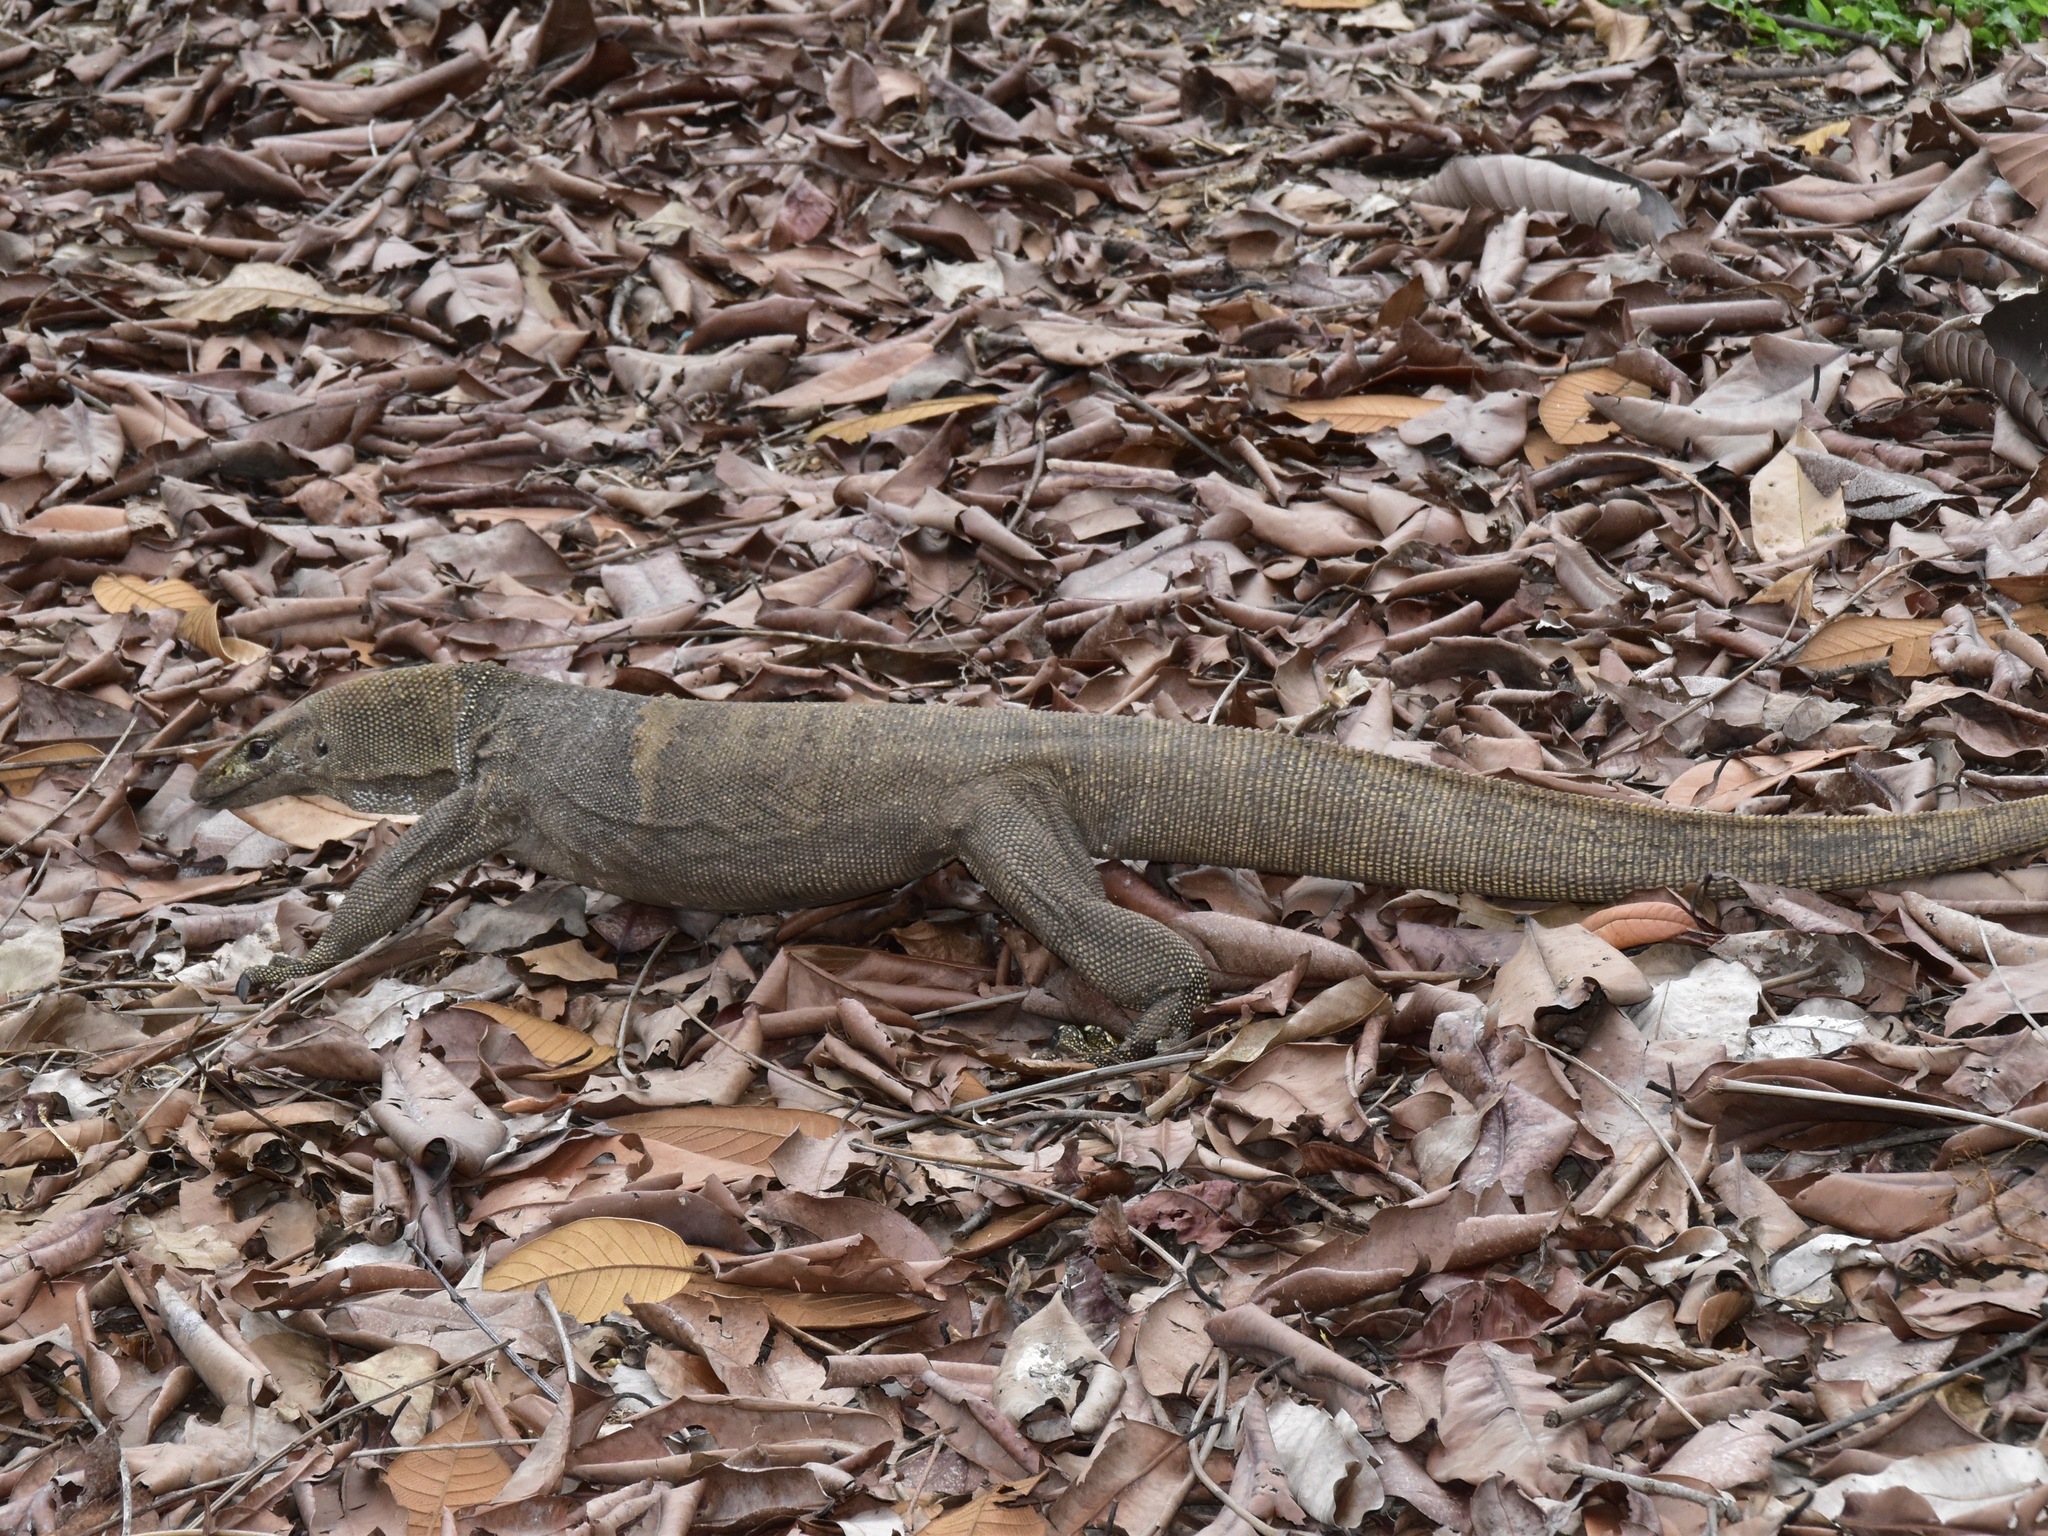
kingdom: Animalia
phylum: Chordata
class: Squamata
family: Varanidae
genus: Varanus
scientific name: Varanus nebulosus
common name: Clouded monitor
